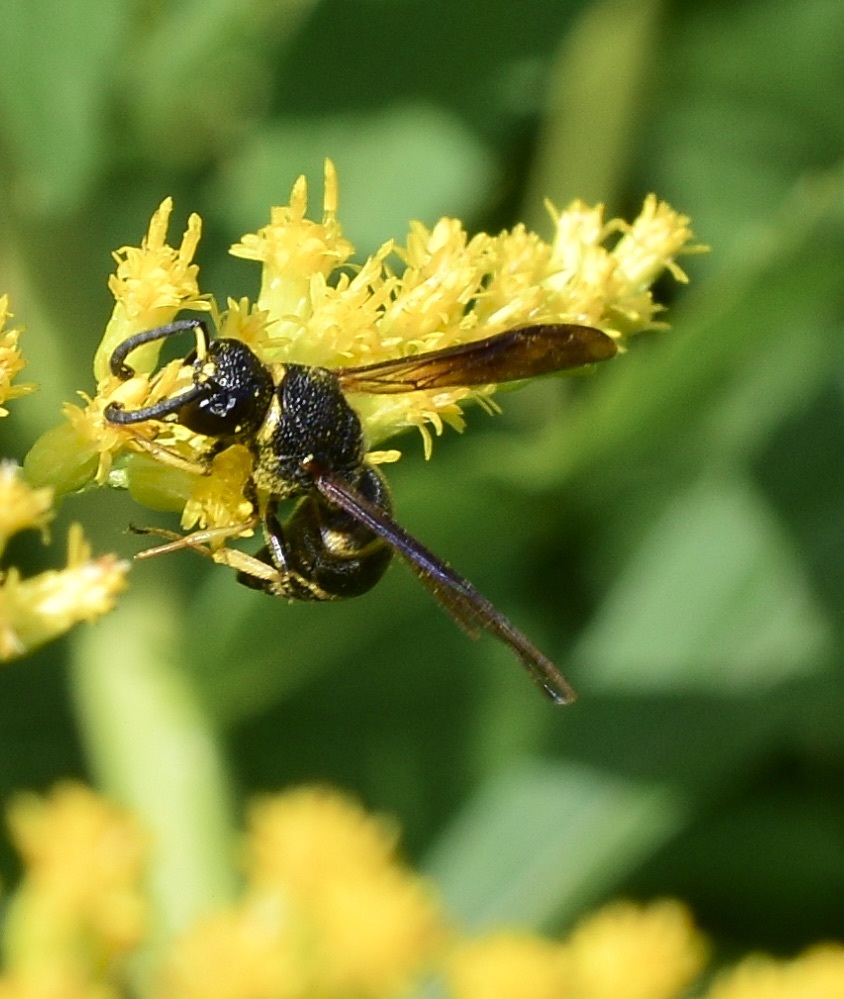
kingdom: Animalia
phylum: Arthropoda
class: Insecta
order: Hymenoptera
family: Eumenidae
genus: Euodynerus
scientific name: Euodynerus
